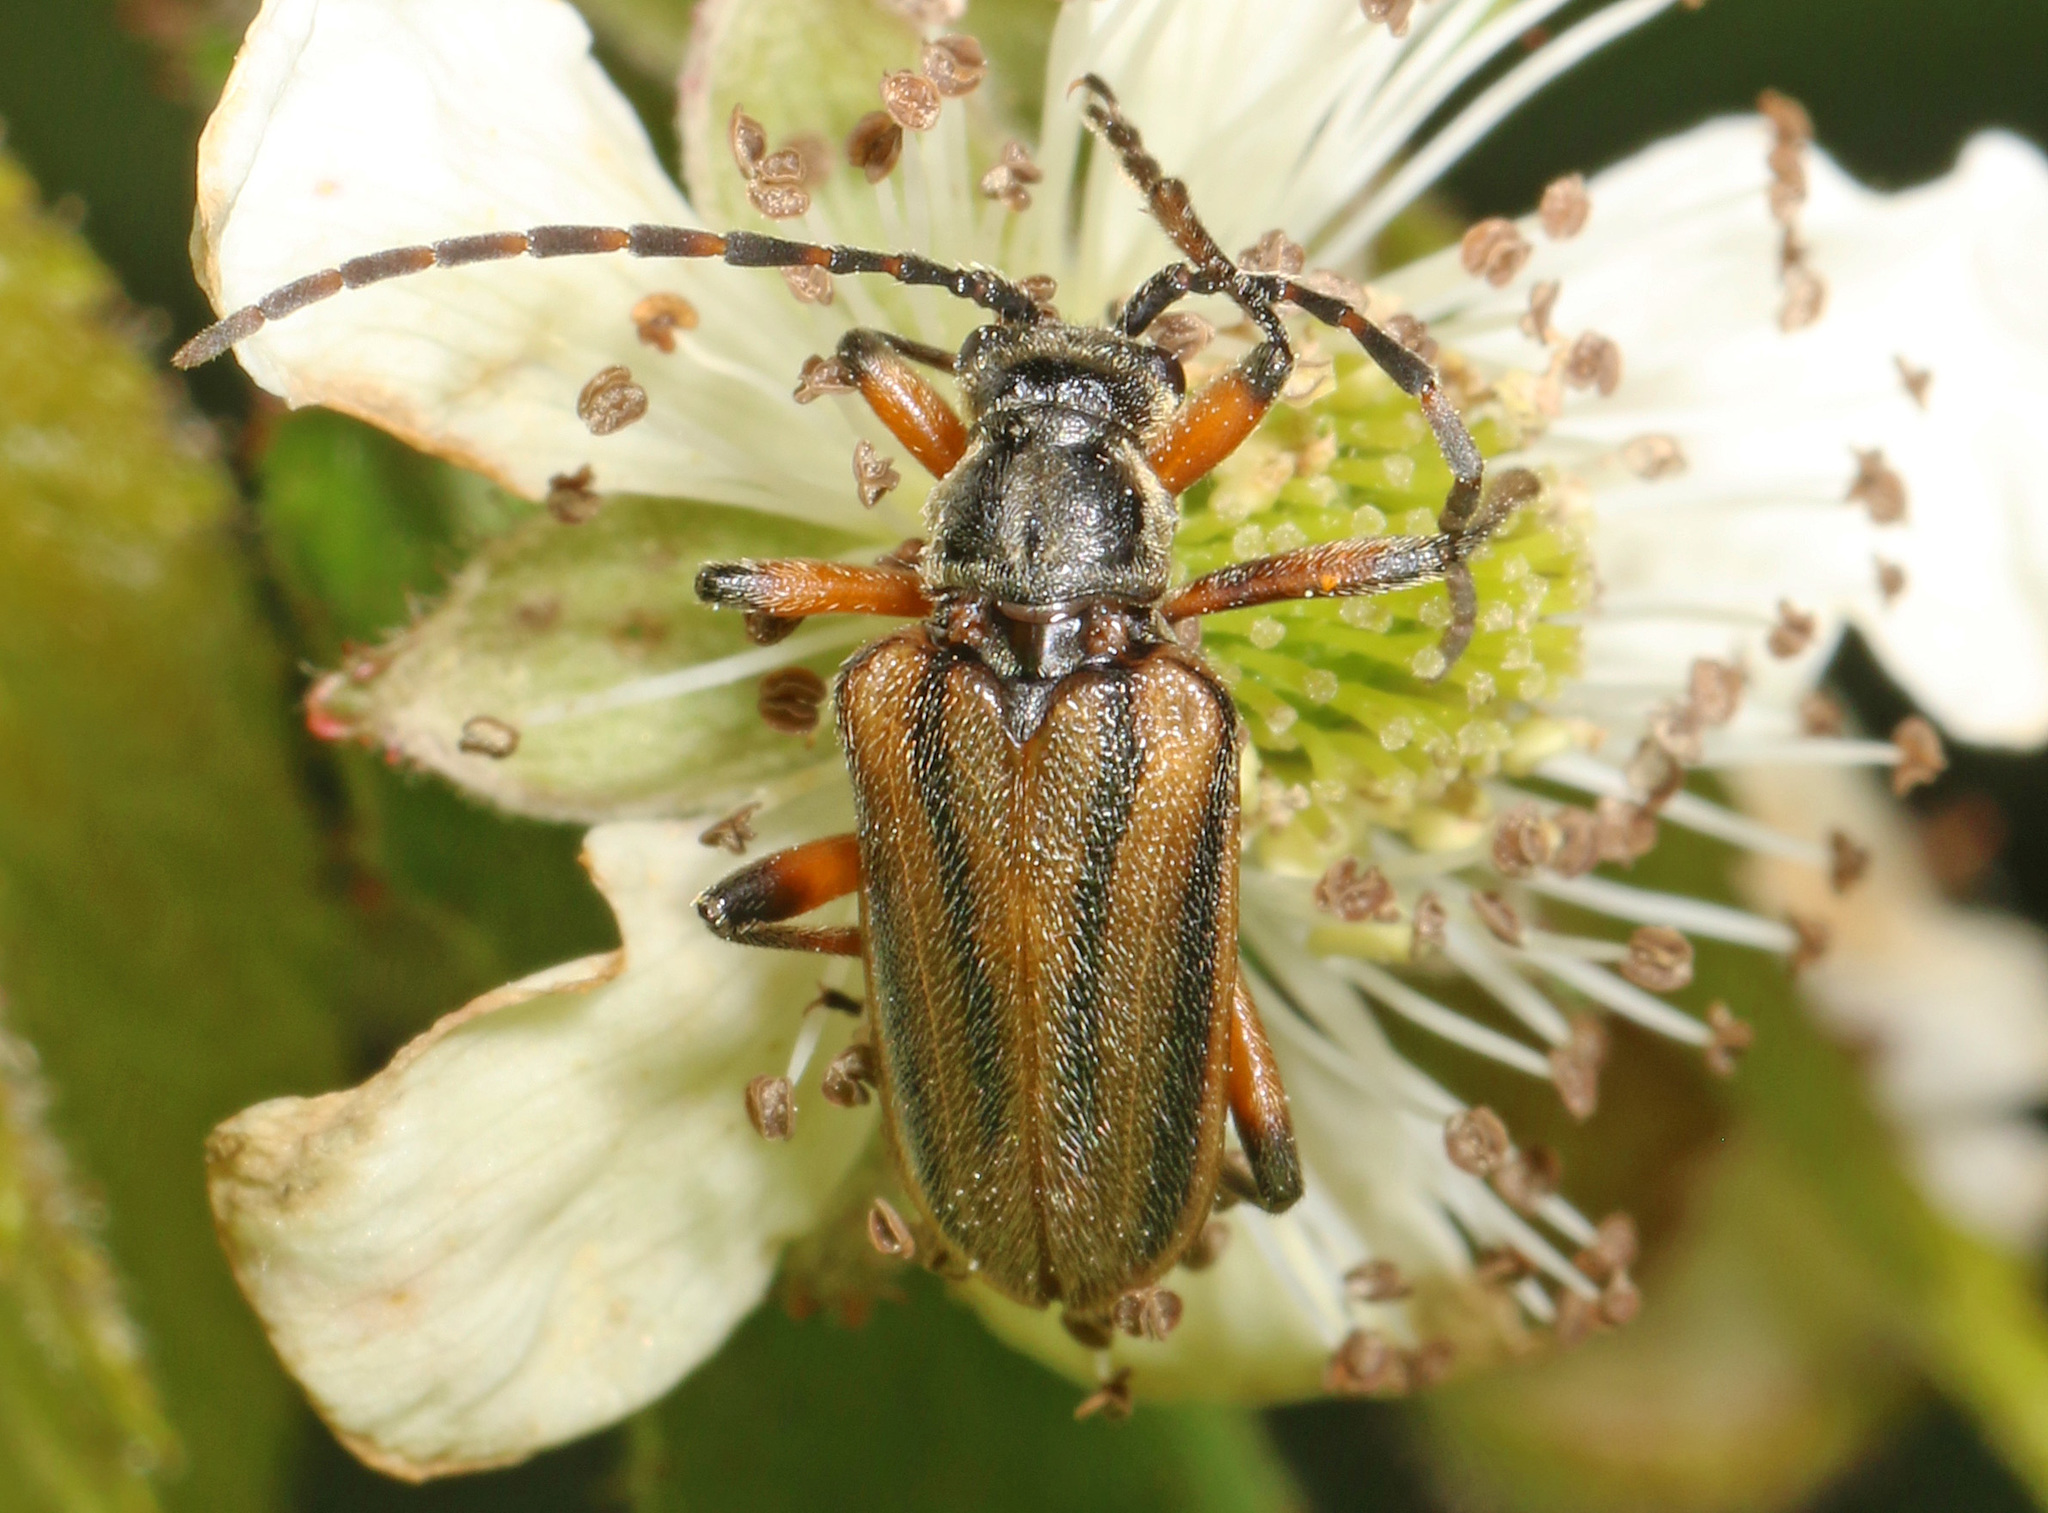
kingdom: Animalia
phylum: Arthropoda
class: Insecta
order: Coleoptera
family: Cerambycidae
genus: Brachysomida
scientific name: Brachysomida bivittata
